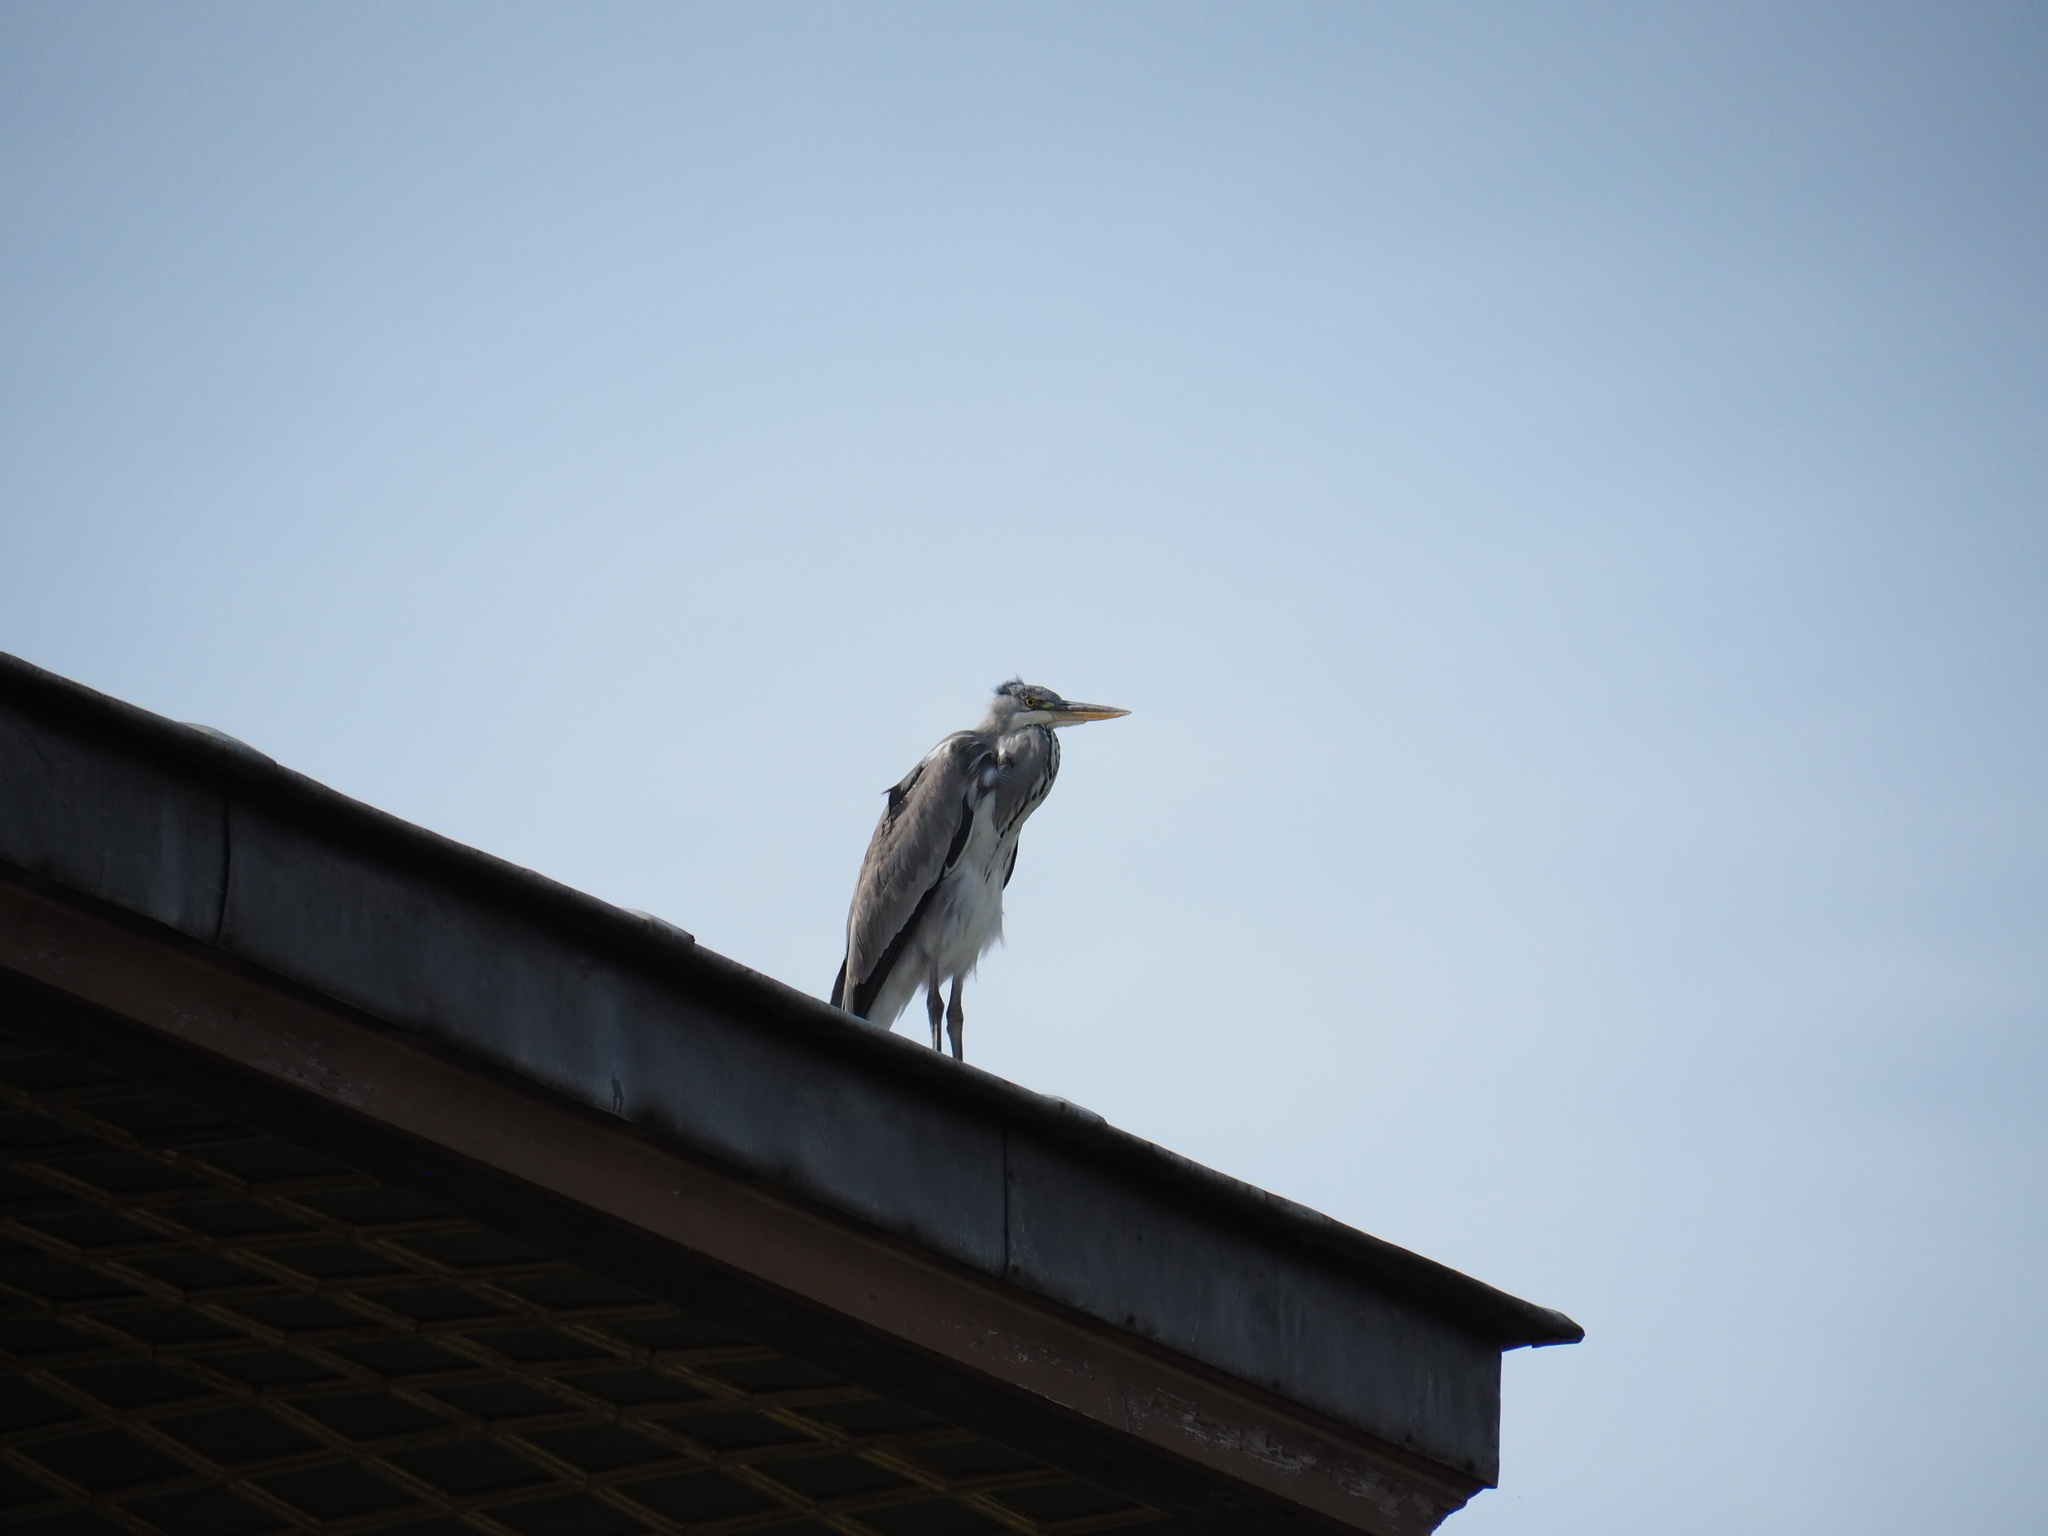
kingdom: Animalia
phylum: Chordata
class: Aves
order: Pelecaniformes
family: Ardeidae
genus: Ardea
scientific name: Ardea cinerea
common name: Grey heron
